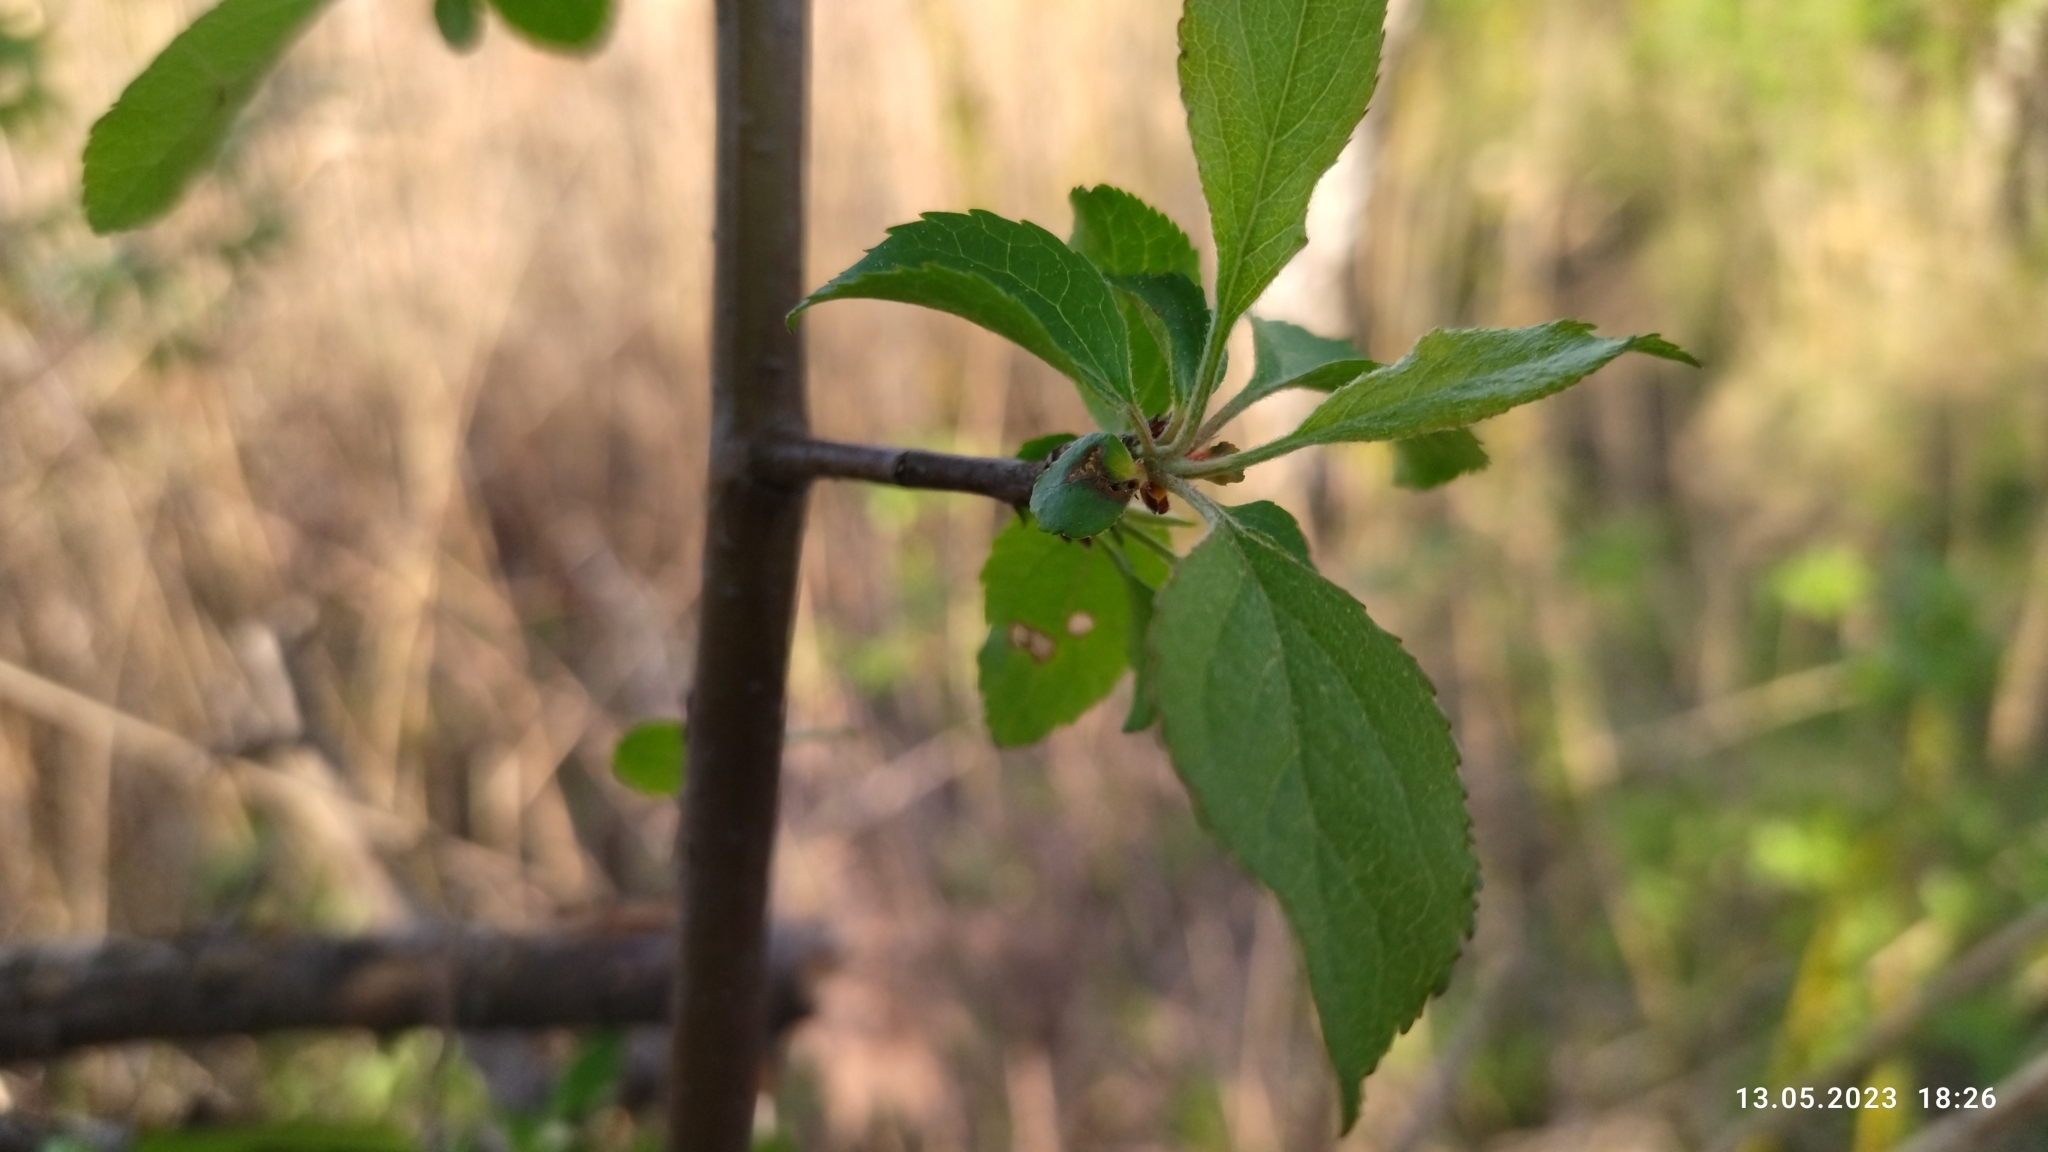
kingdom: Plantae
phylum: Tracheophyta
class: Magnoliopsida
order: Rosales
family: Rosaceae
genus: Malus
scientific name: Malus domestica
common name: Apple
